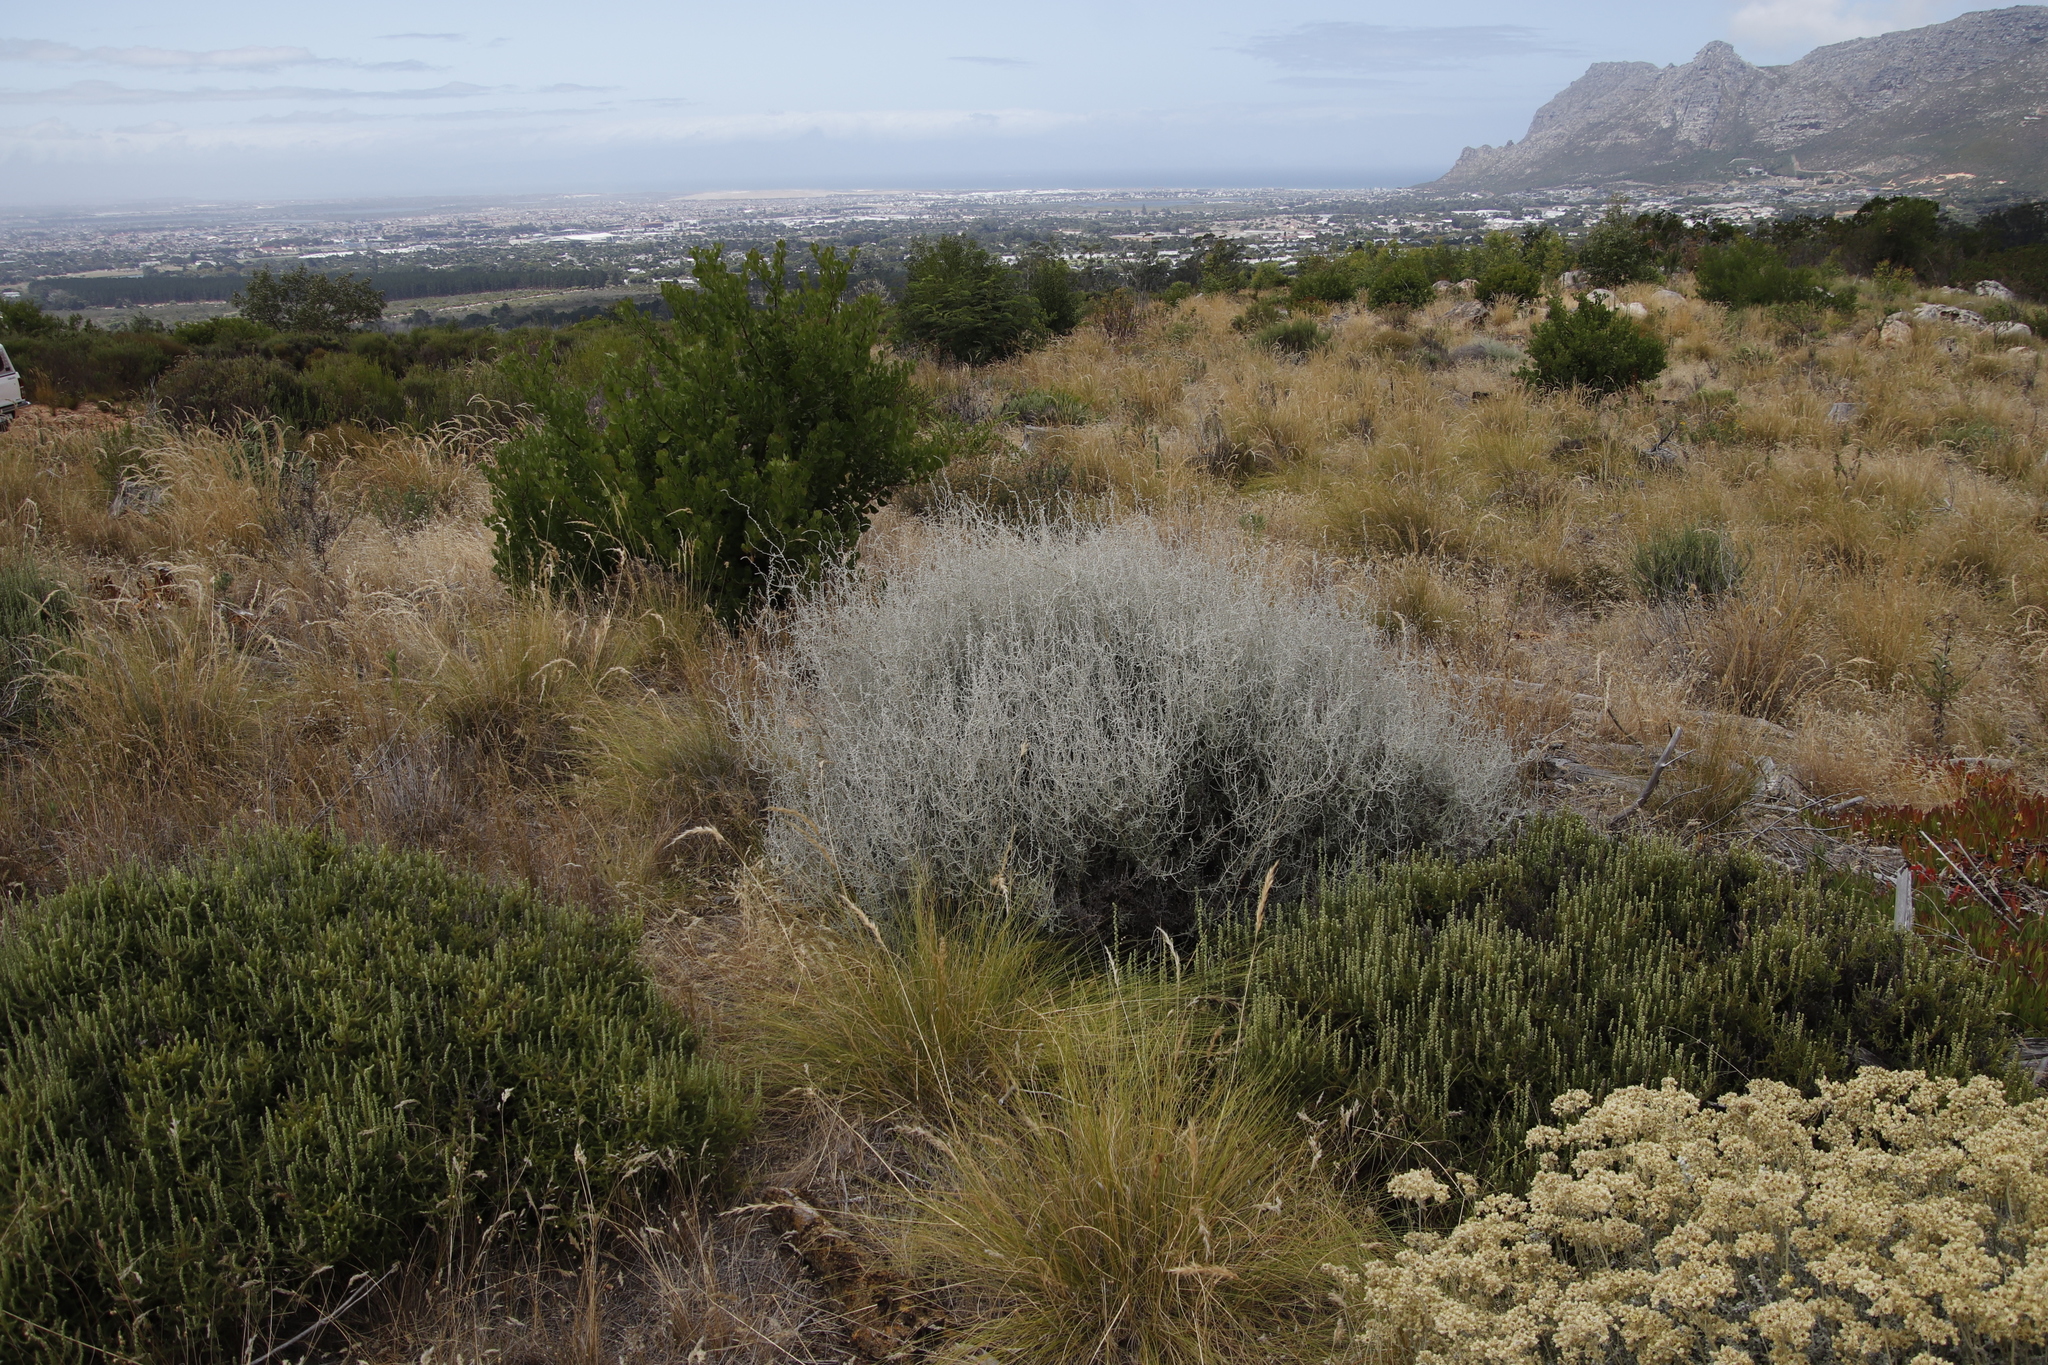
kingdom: Plantae
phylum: Tracheophyta
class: Magnoliopsida
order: Asterales
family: Asteraceae
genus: Seriphium
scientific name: Seriphium plumosum
